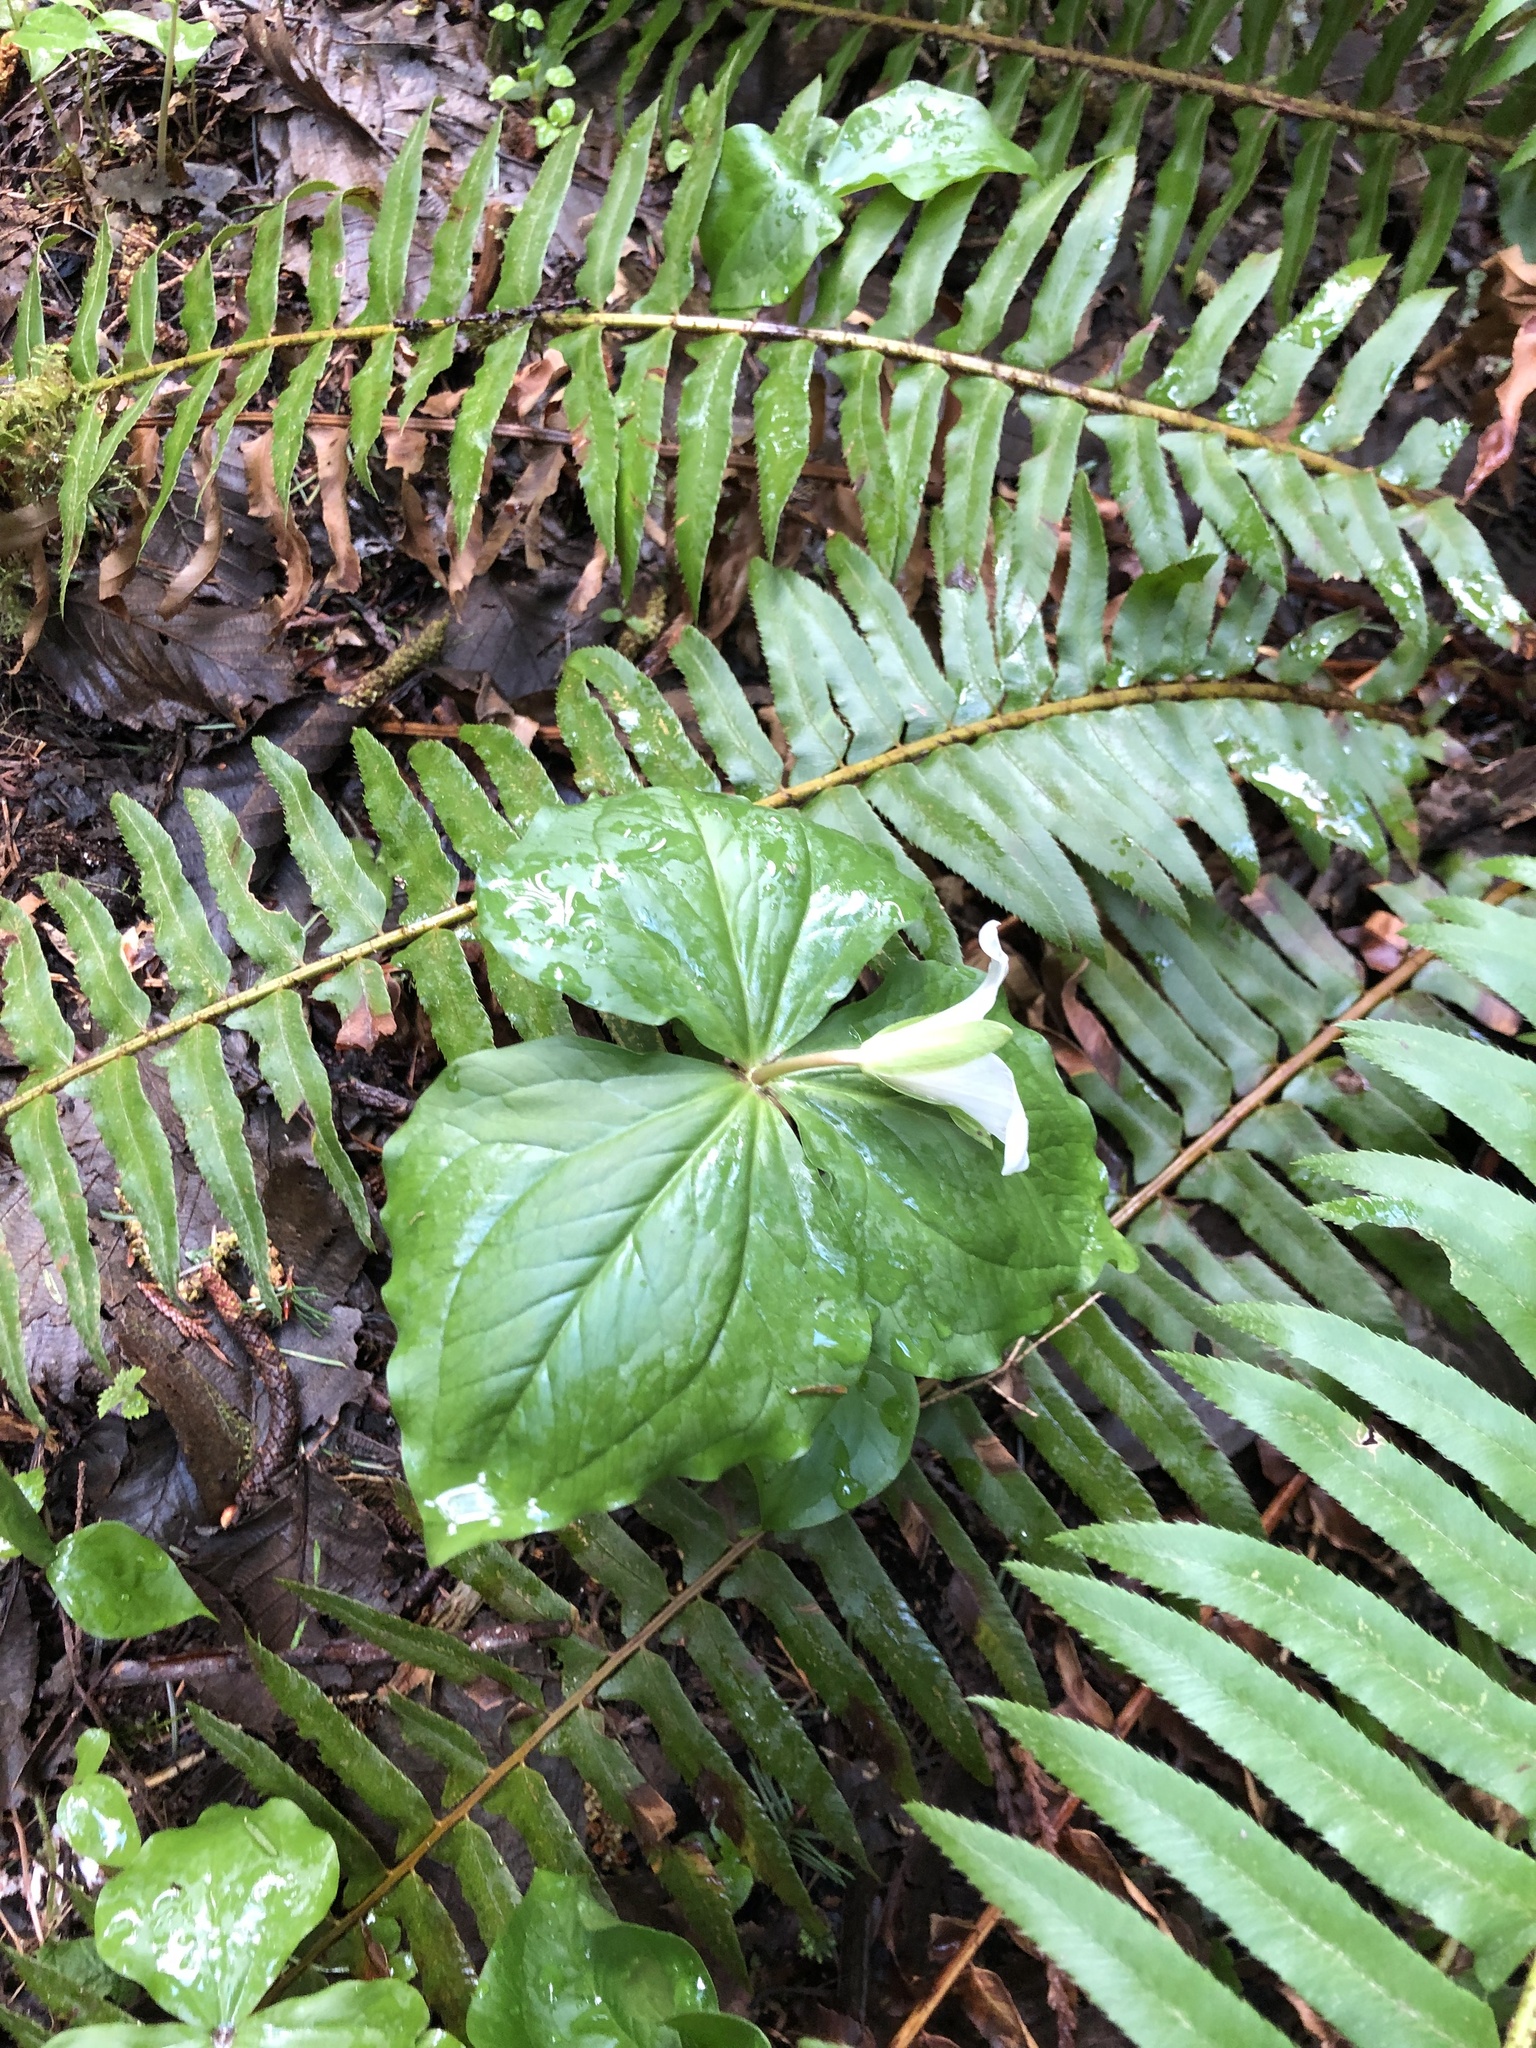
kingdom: Plantae
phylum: Tracheophyta
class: Liliopsida
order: Liliales
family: Melanthiaceae
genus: Trillium
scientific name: Trillium ovatum
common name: Pacific trillium
